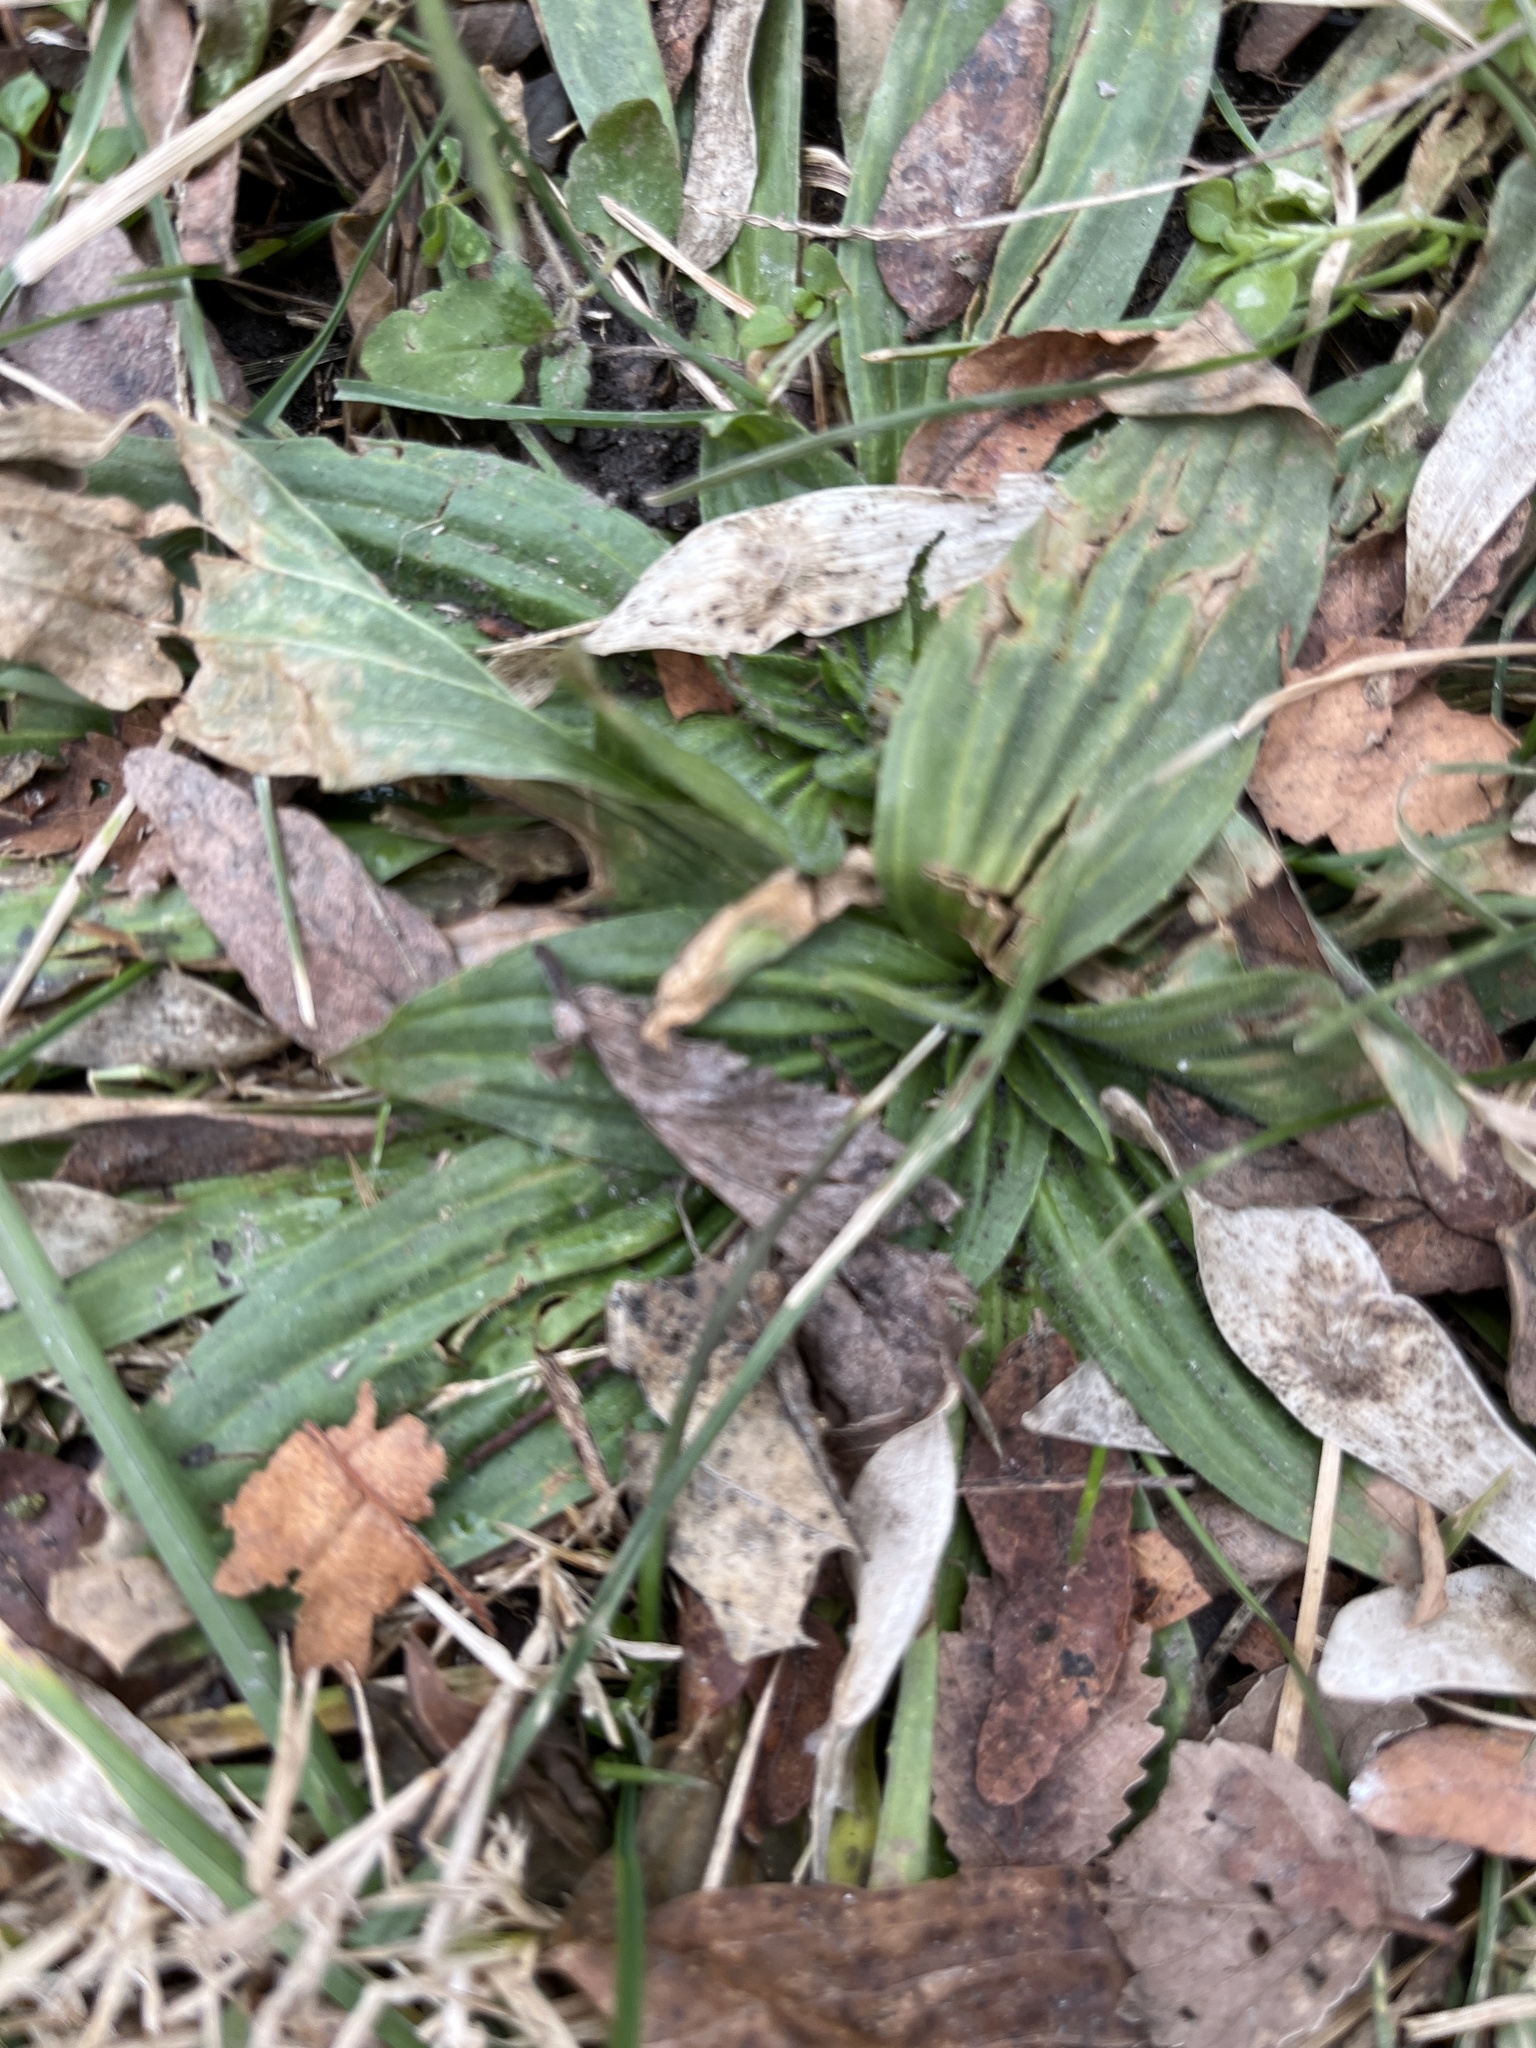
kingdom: Plantae
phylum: Tracheophyta
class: Magnoliopsida
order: Lamiales
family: Plantaginaceae
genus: Plantago
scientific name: Plantago lanceolata
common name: Ribwort plantain
